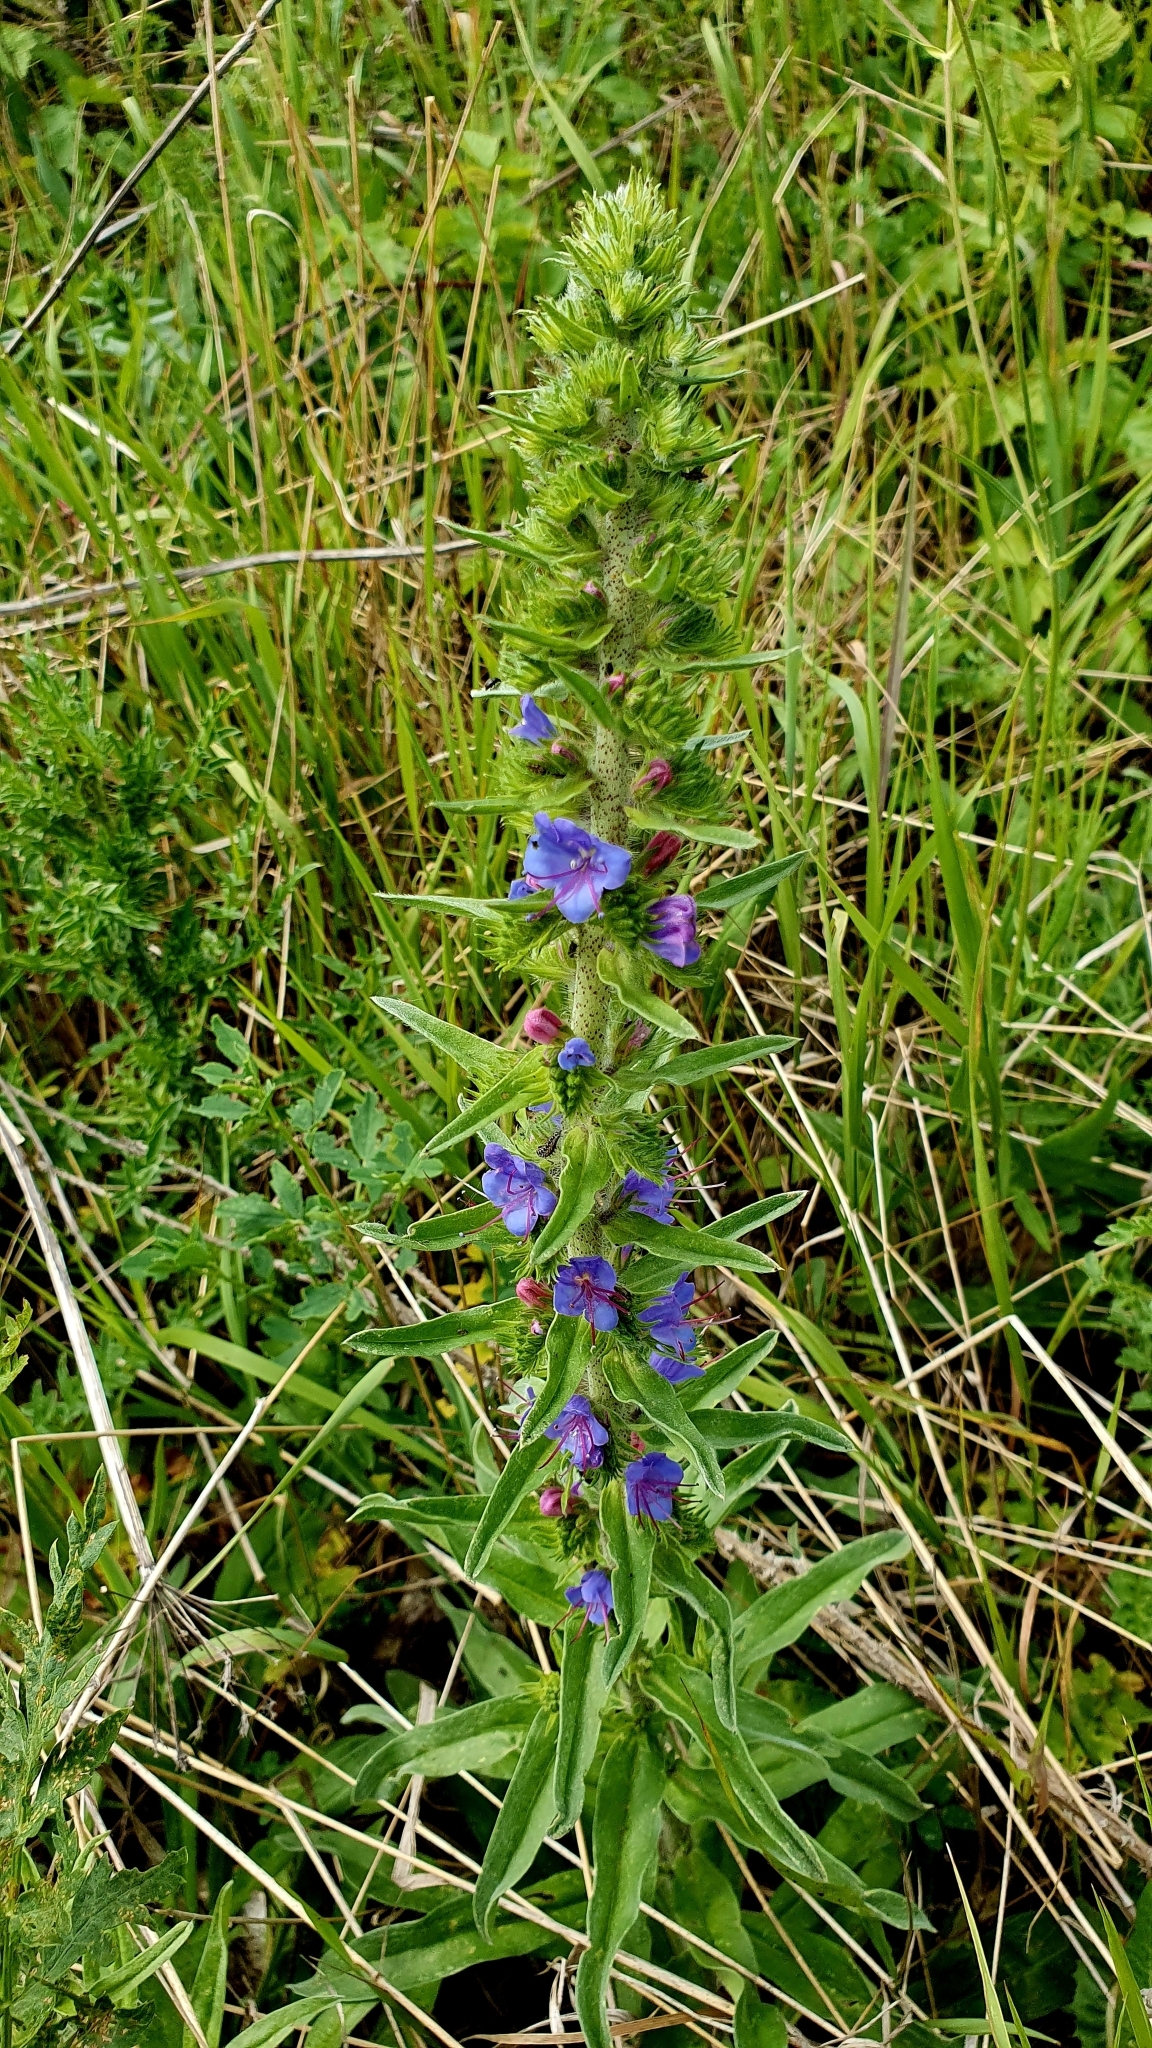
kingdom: Plantae
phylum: Tracheophyta
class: Magnoliopsida
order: Boraginales
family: Boraginaceae
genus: Echium
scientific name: Echium vulgare
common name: Common viper's bugloss
